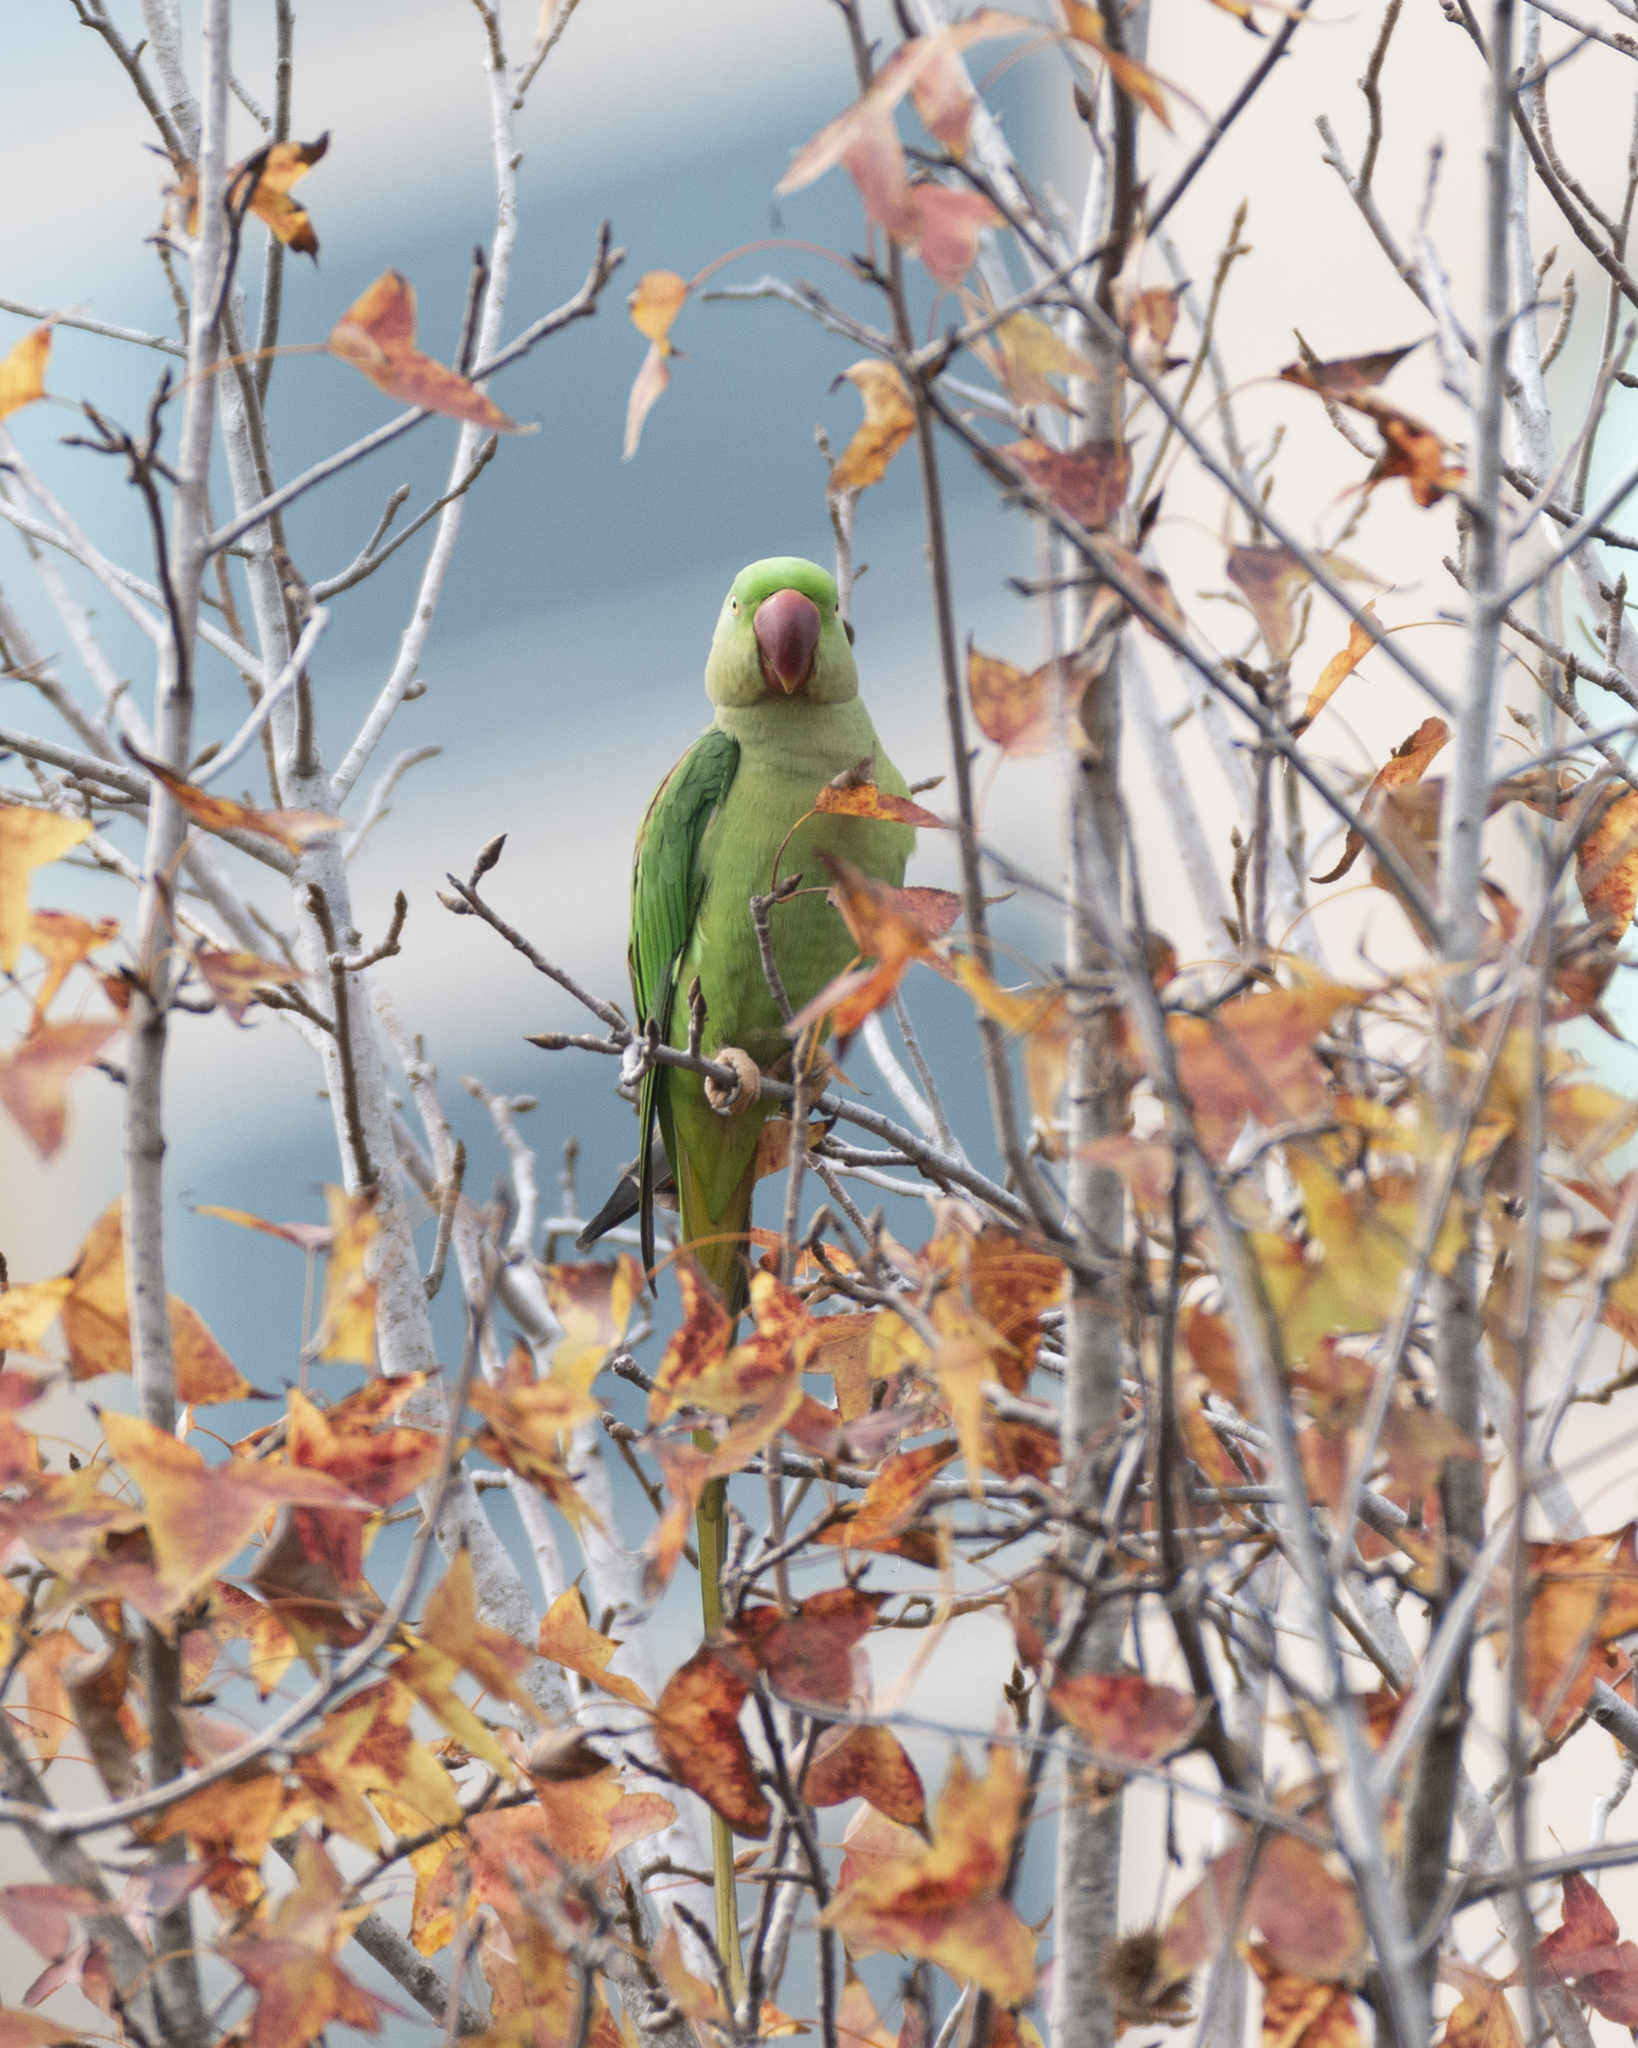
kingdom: Animalia
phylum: Chordata
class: Aves
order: Psittaciformes
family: Psittacidae
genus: Psittacula
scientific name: Psittacula eupatria
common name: Alexandrine parakeet
